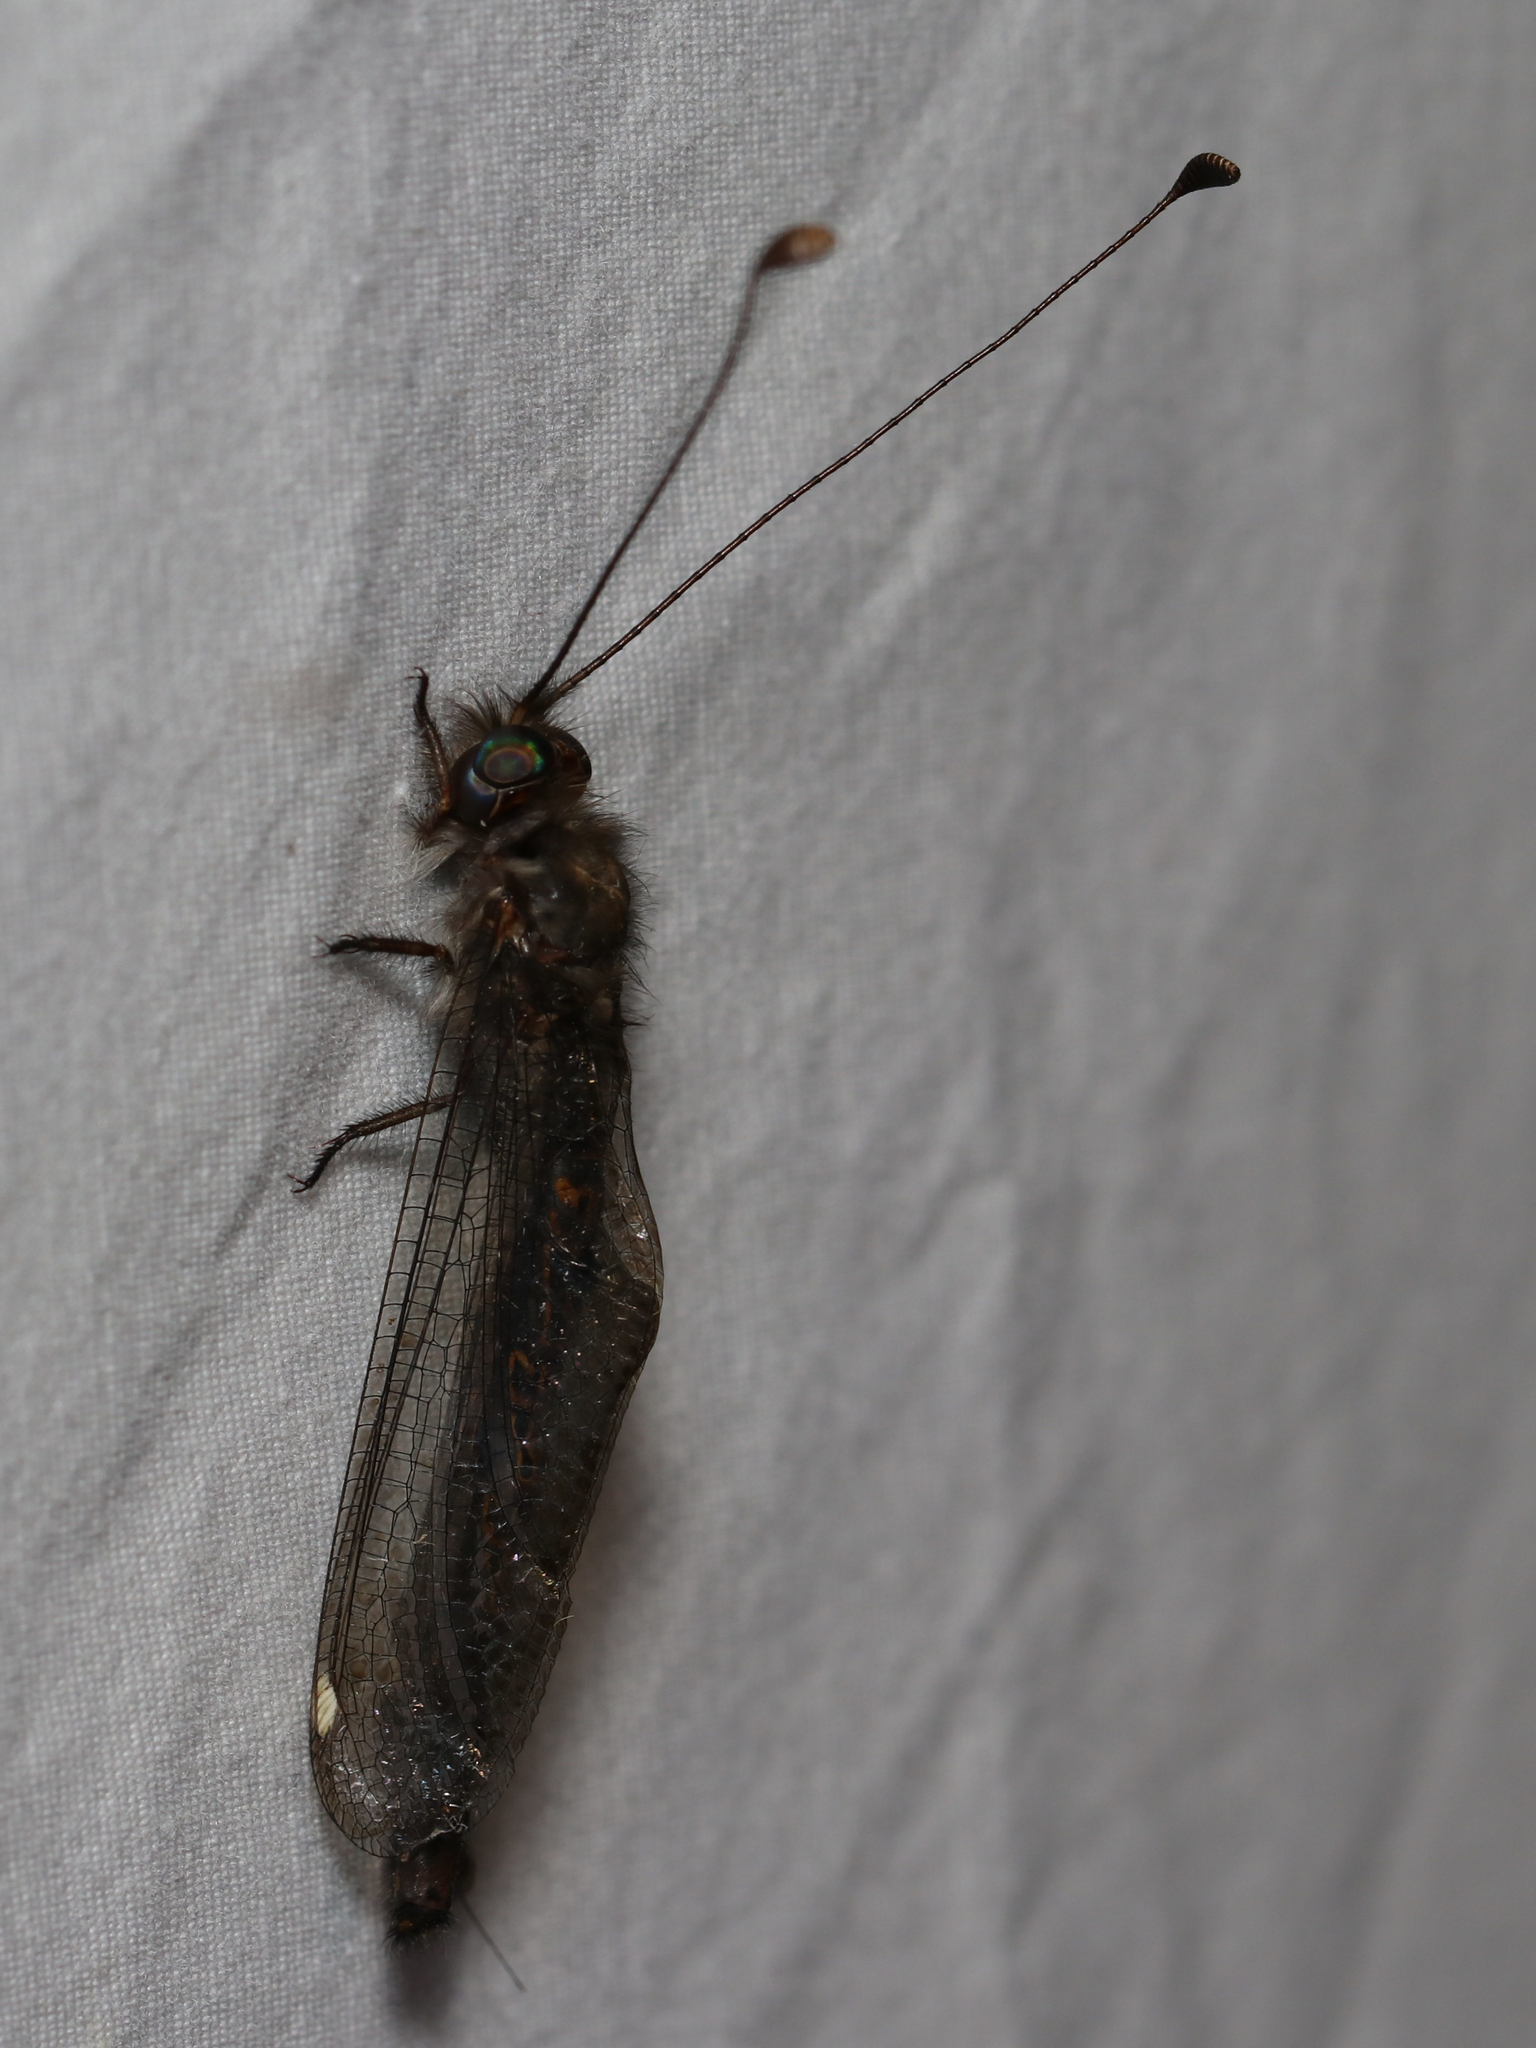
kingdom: Animalia
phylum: Arthropoda
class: Insecta
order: Neuroptera
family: Ascalaphidae
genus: Ululodes
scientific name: Ululodes quadripunctatus
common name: Four-spotted owlfly
